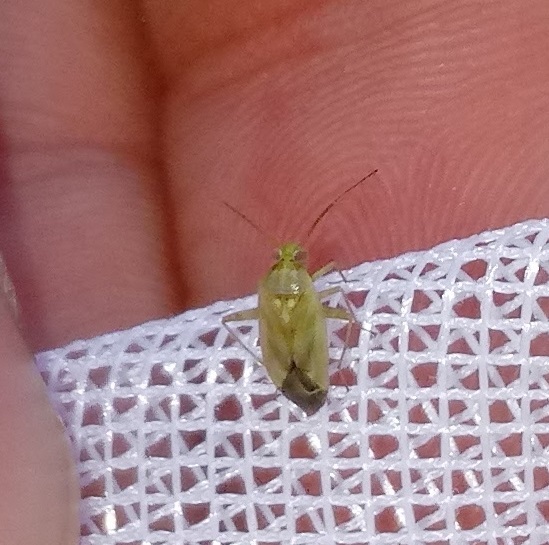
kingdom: Animalia
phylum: Arthropoda
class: Insecta
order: Hemiptera
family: Miridae
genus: Taylorilygus
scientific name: Taylorilygus apicalis
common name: Plant bug
